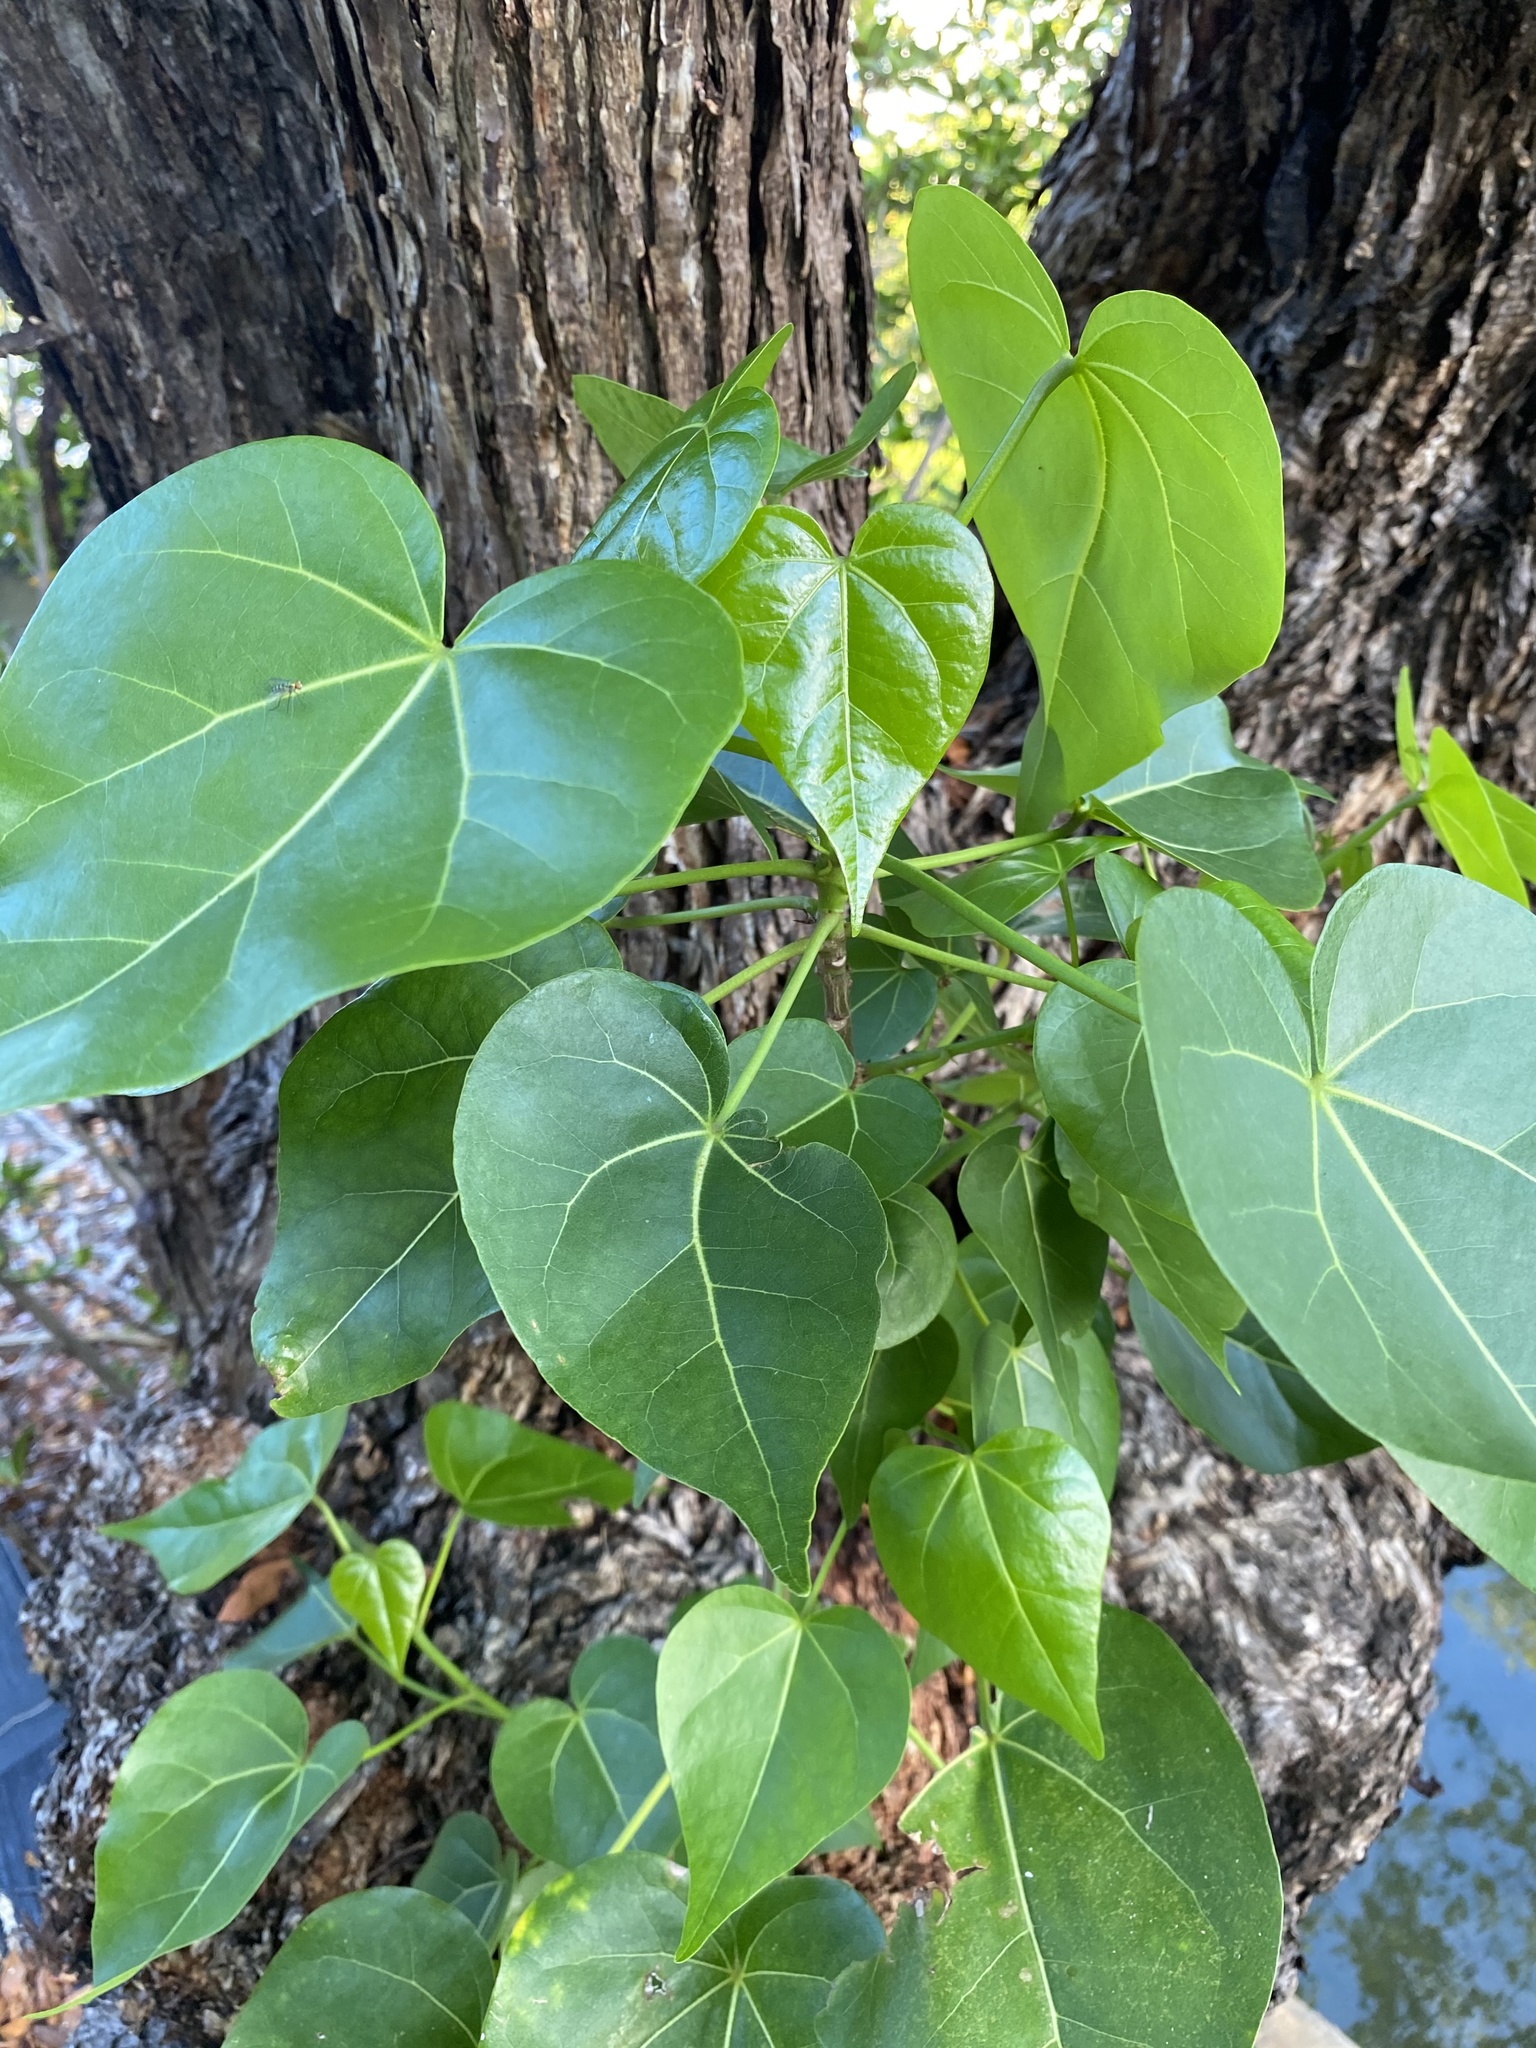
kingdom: Plantae
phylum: Tracheophyta
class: Magnoliopsida
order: Malvales
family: Malvaceae
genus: Thespesia
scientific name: Thespesia populnea
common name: Seaside mahoe
